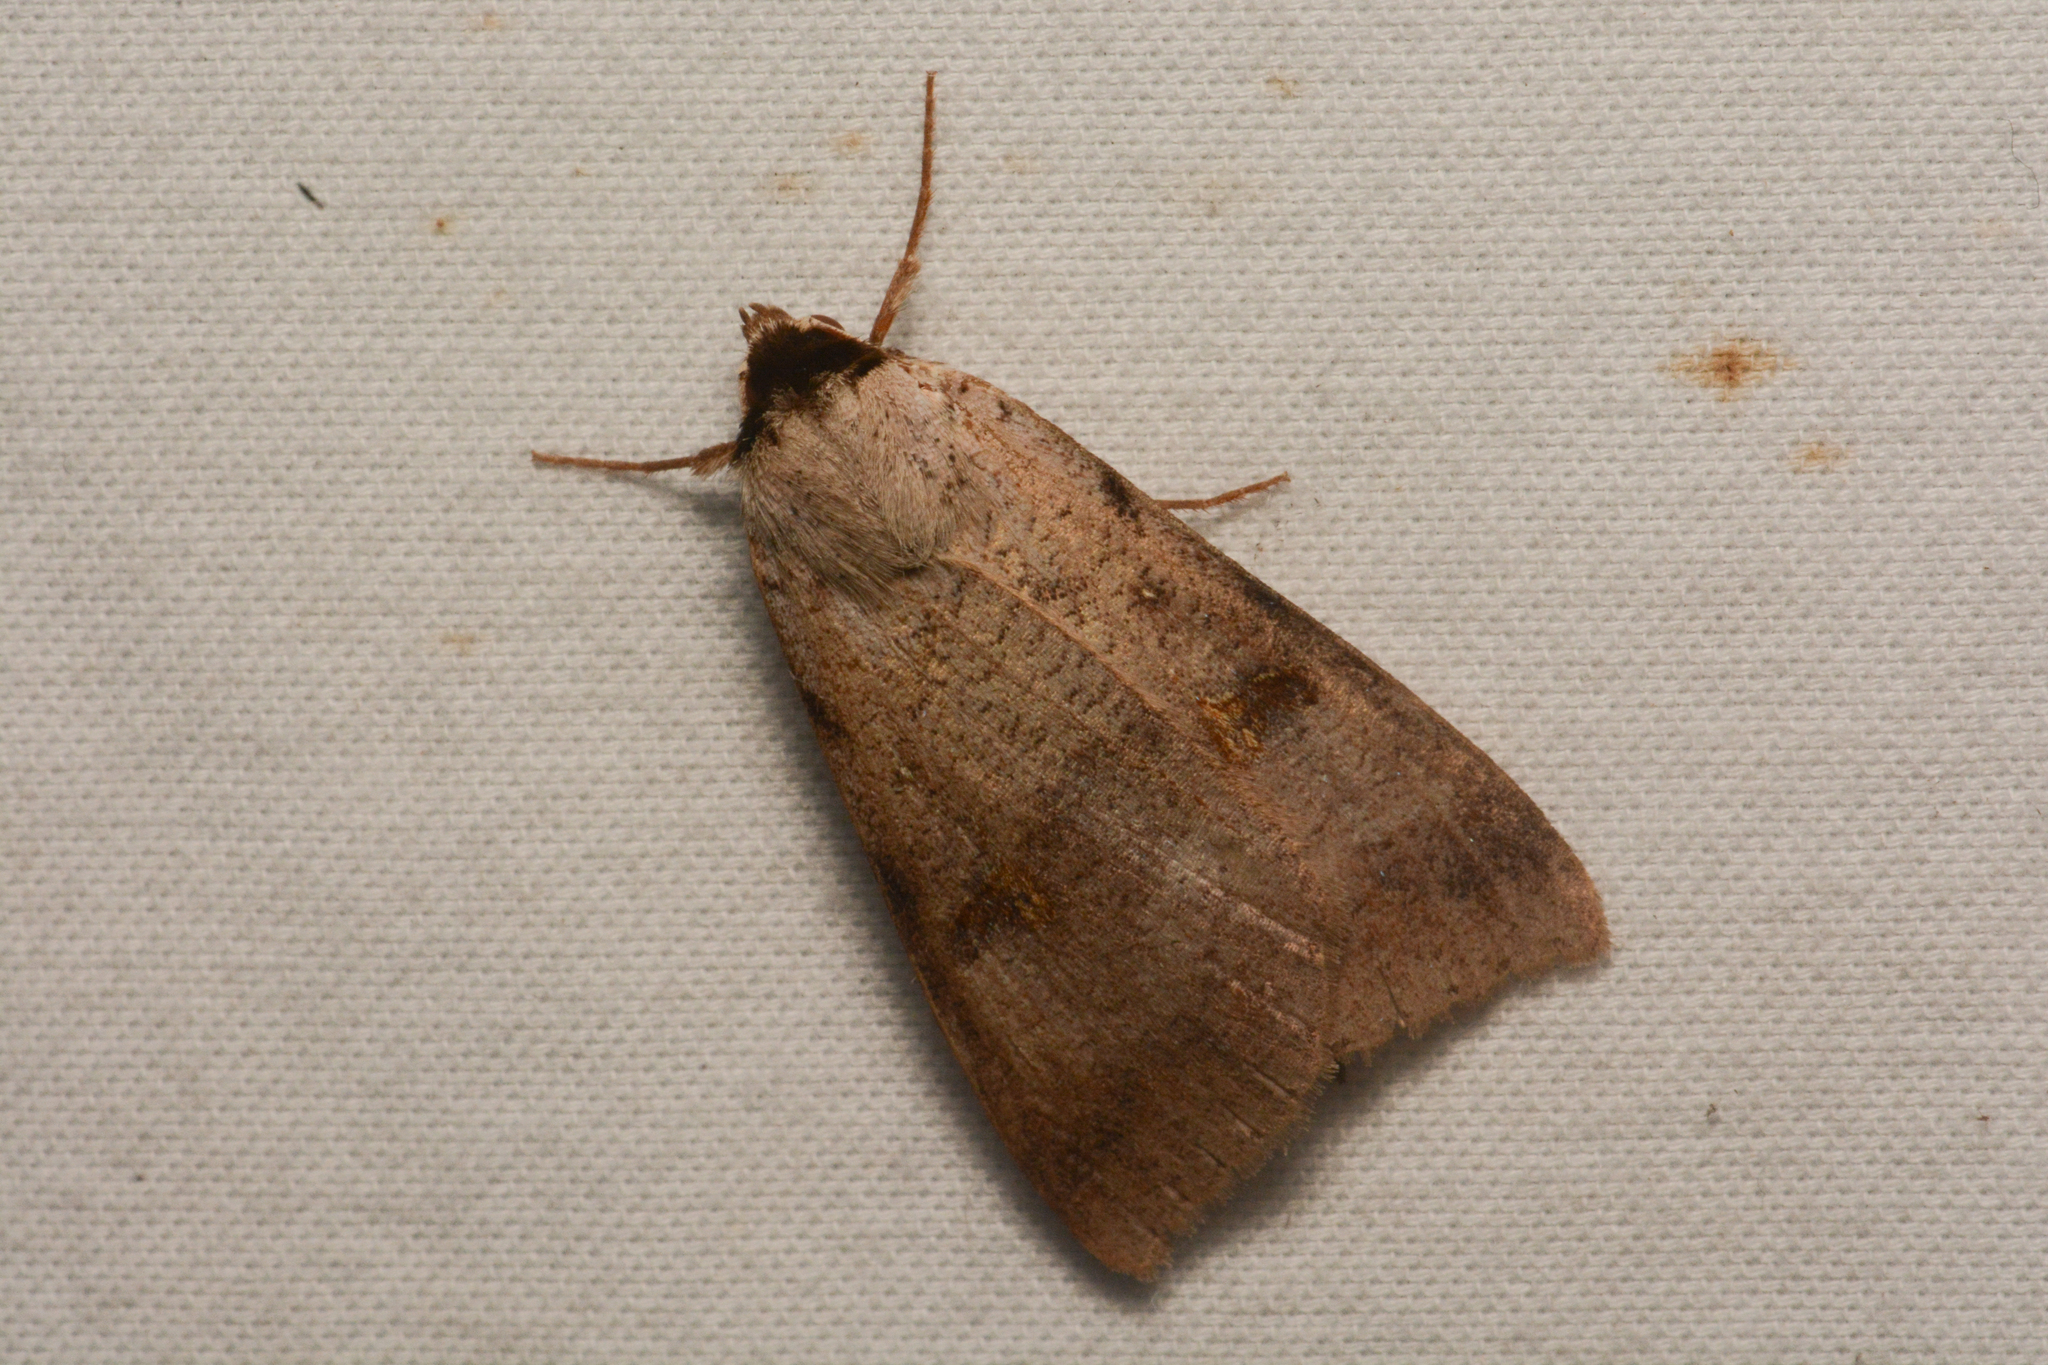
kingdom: Animalia
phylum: Arthropoda
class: Insecta
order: Lepidoptera
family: Erebidae
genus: Lygephila
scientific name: Lygephila victoria
